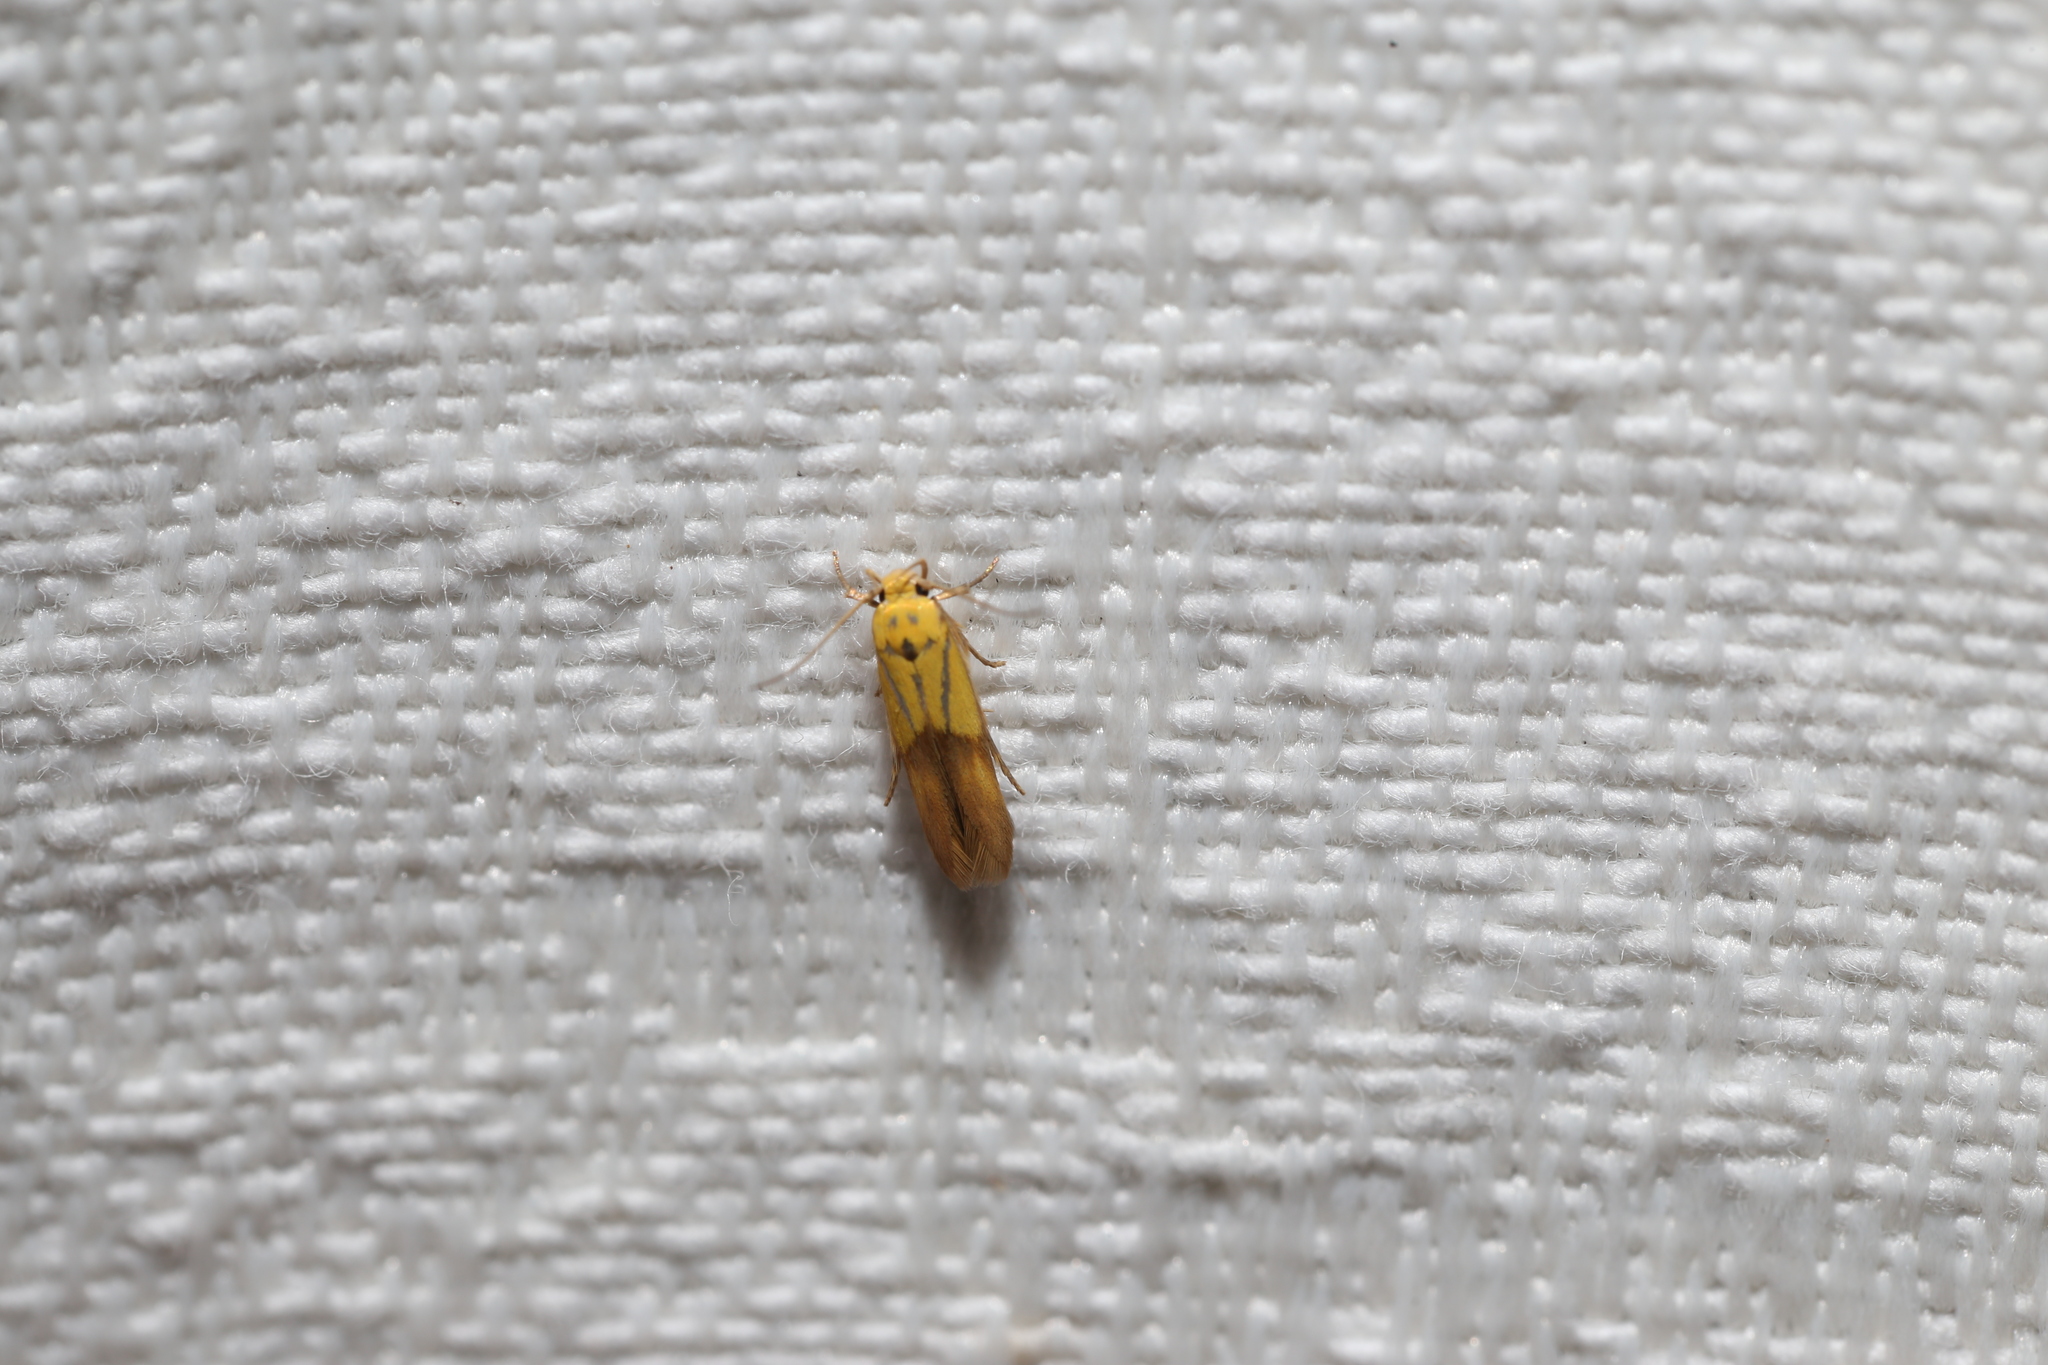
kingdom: Animalia
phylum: Arthropoda
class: Insecta
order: Lepidoptera
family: Stathmopodidae
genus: Stathmopoda
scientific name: Stathmopoda auriferella
